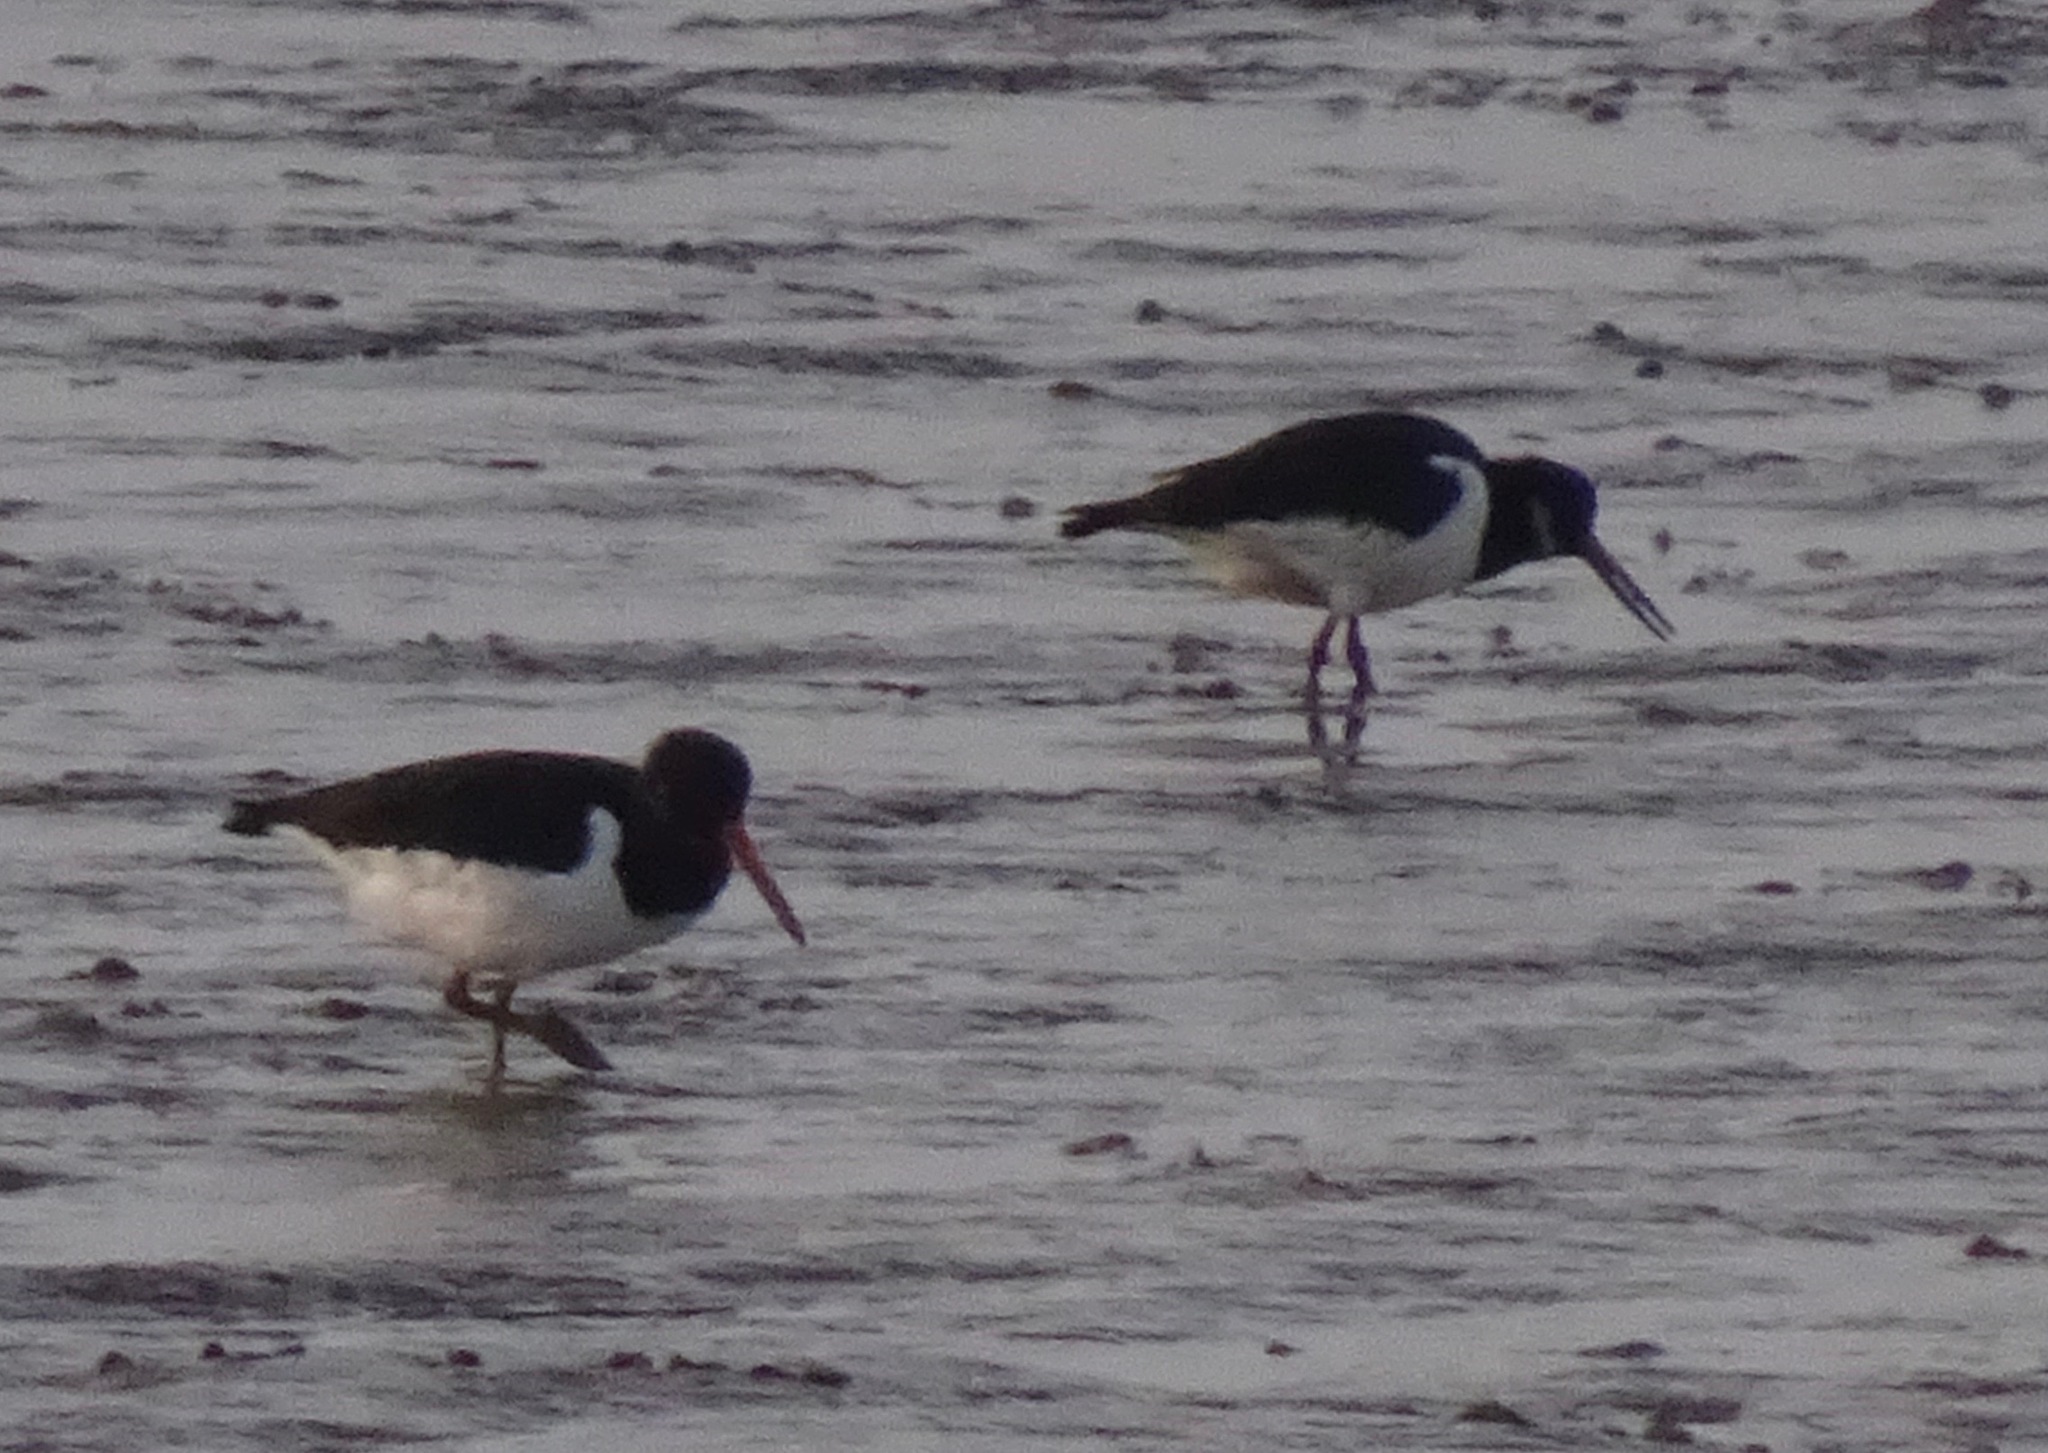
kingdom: Animalia
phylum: Chordata
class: Aves
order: Charadriiformes
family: Haematopodidae
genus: Haematopus
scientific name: Haematopus ostralegus
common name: Eurasian oystercatcher
